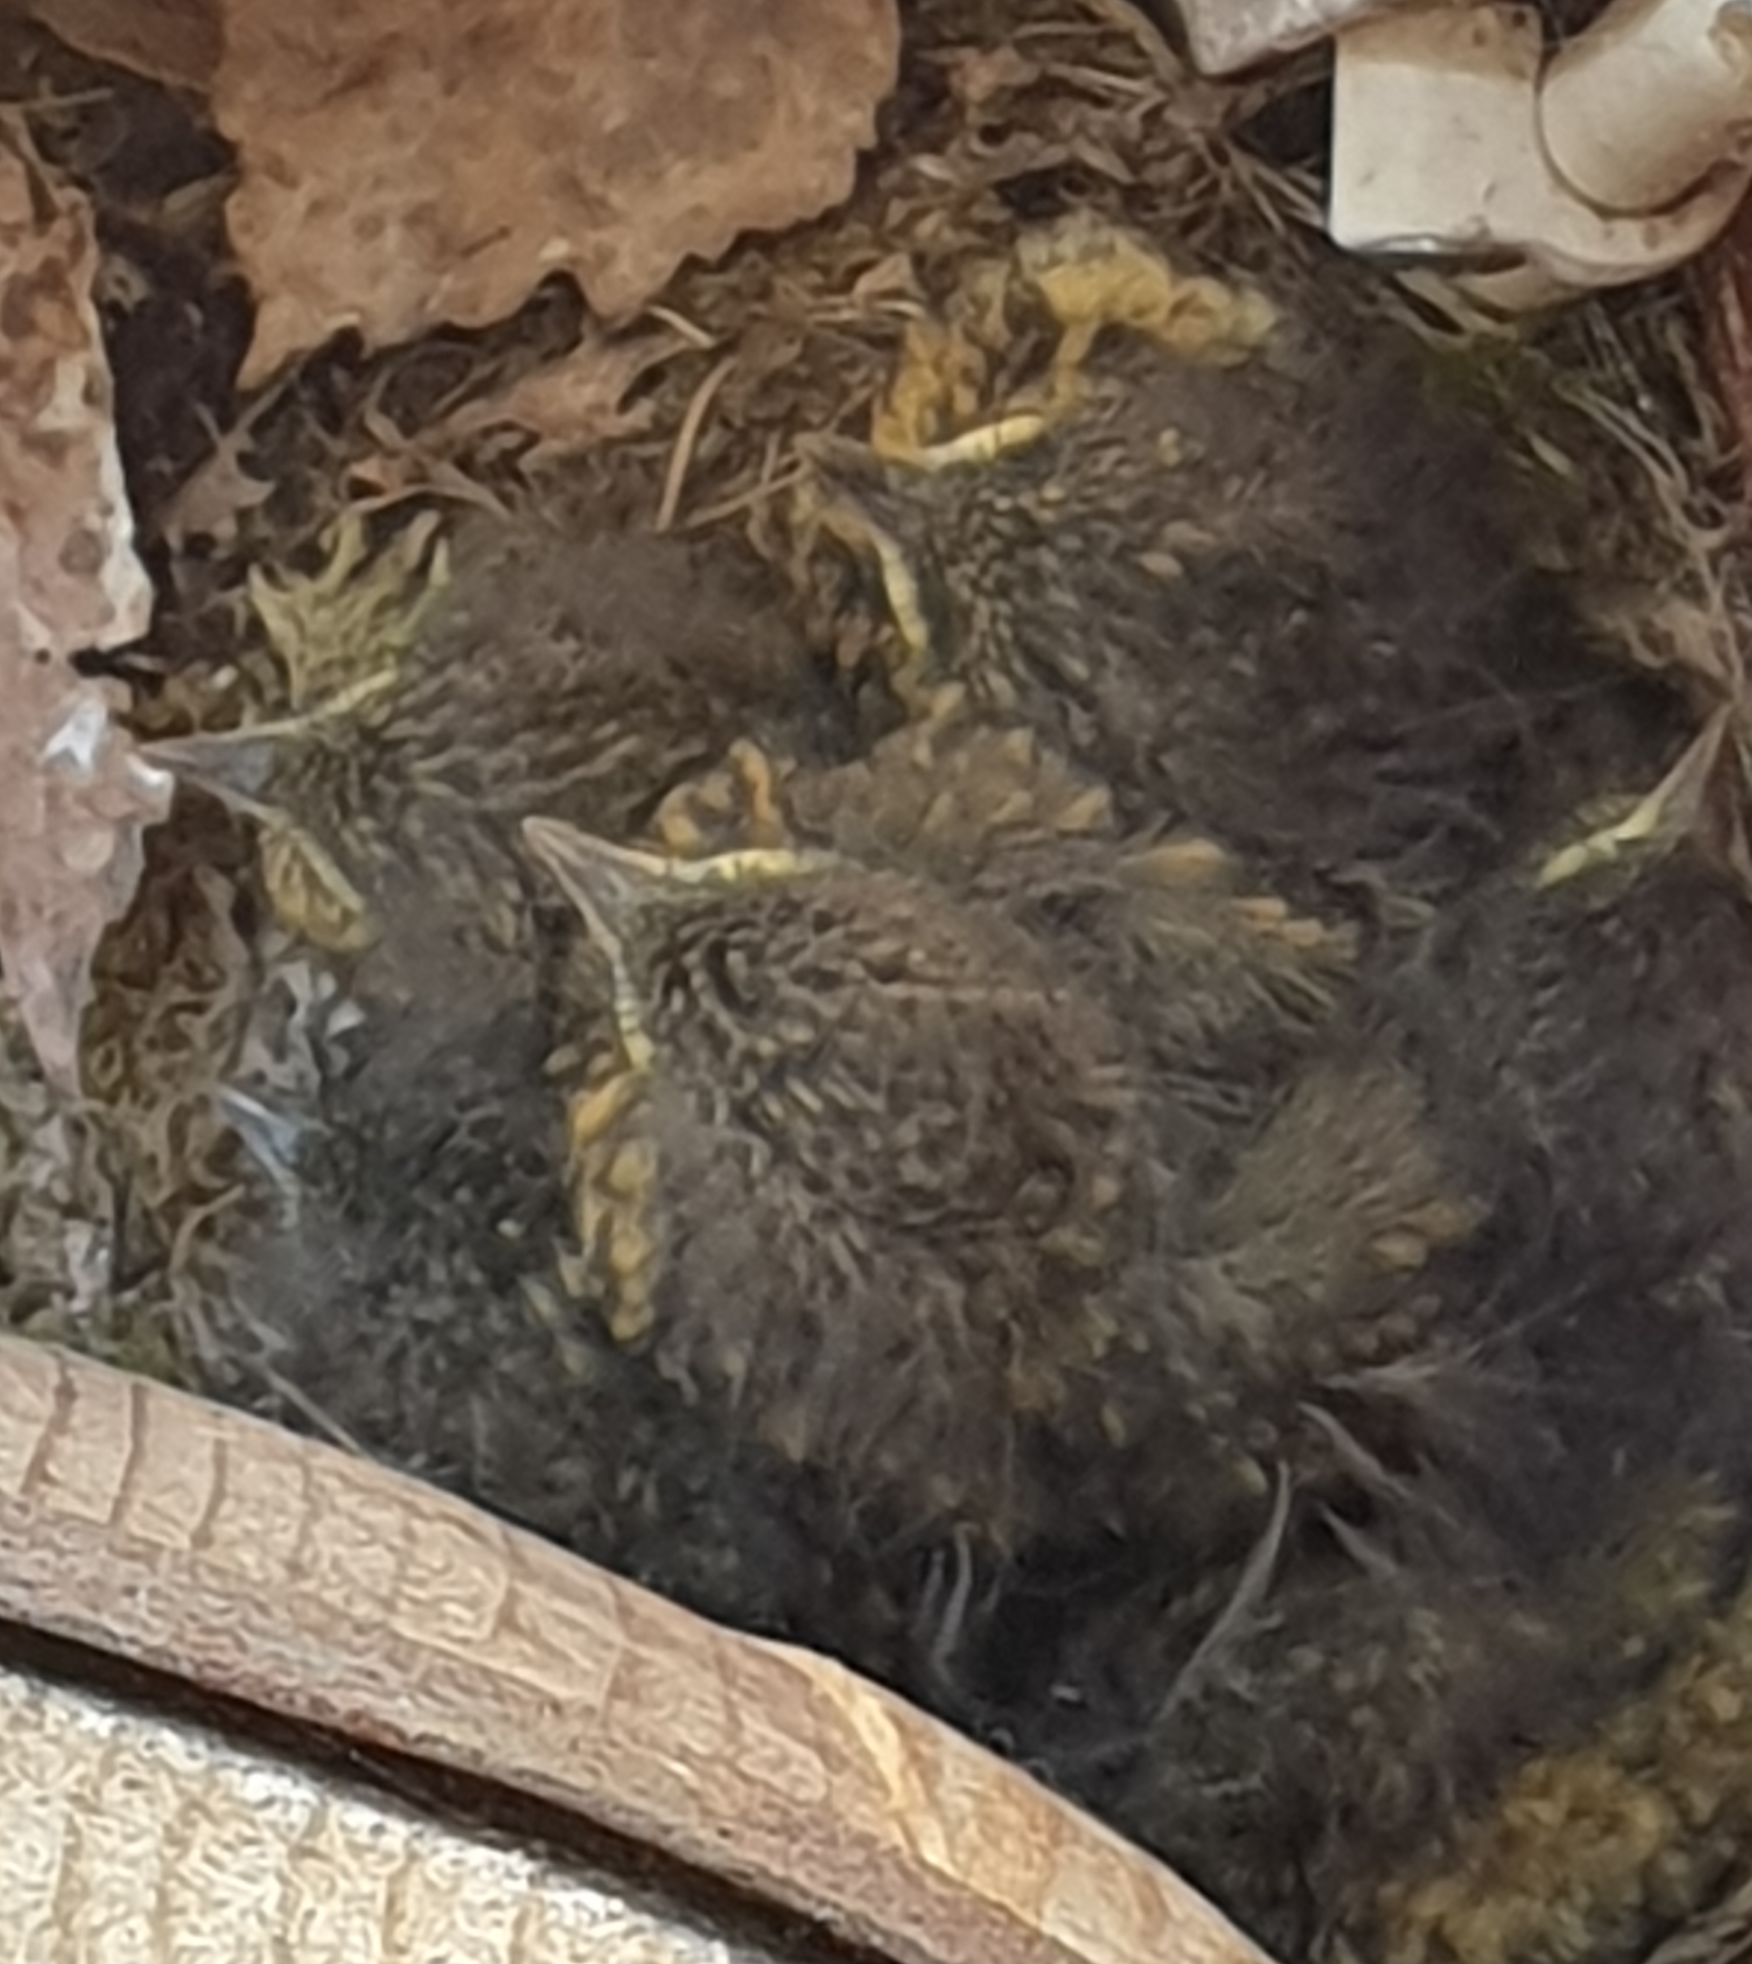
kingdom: Animalia
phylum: Chordata
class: Aves
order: Passeriformes
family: Muscicapidae
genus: Erithacus
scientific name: Erithacus rubecula
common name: European robin
